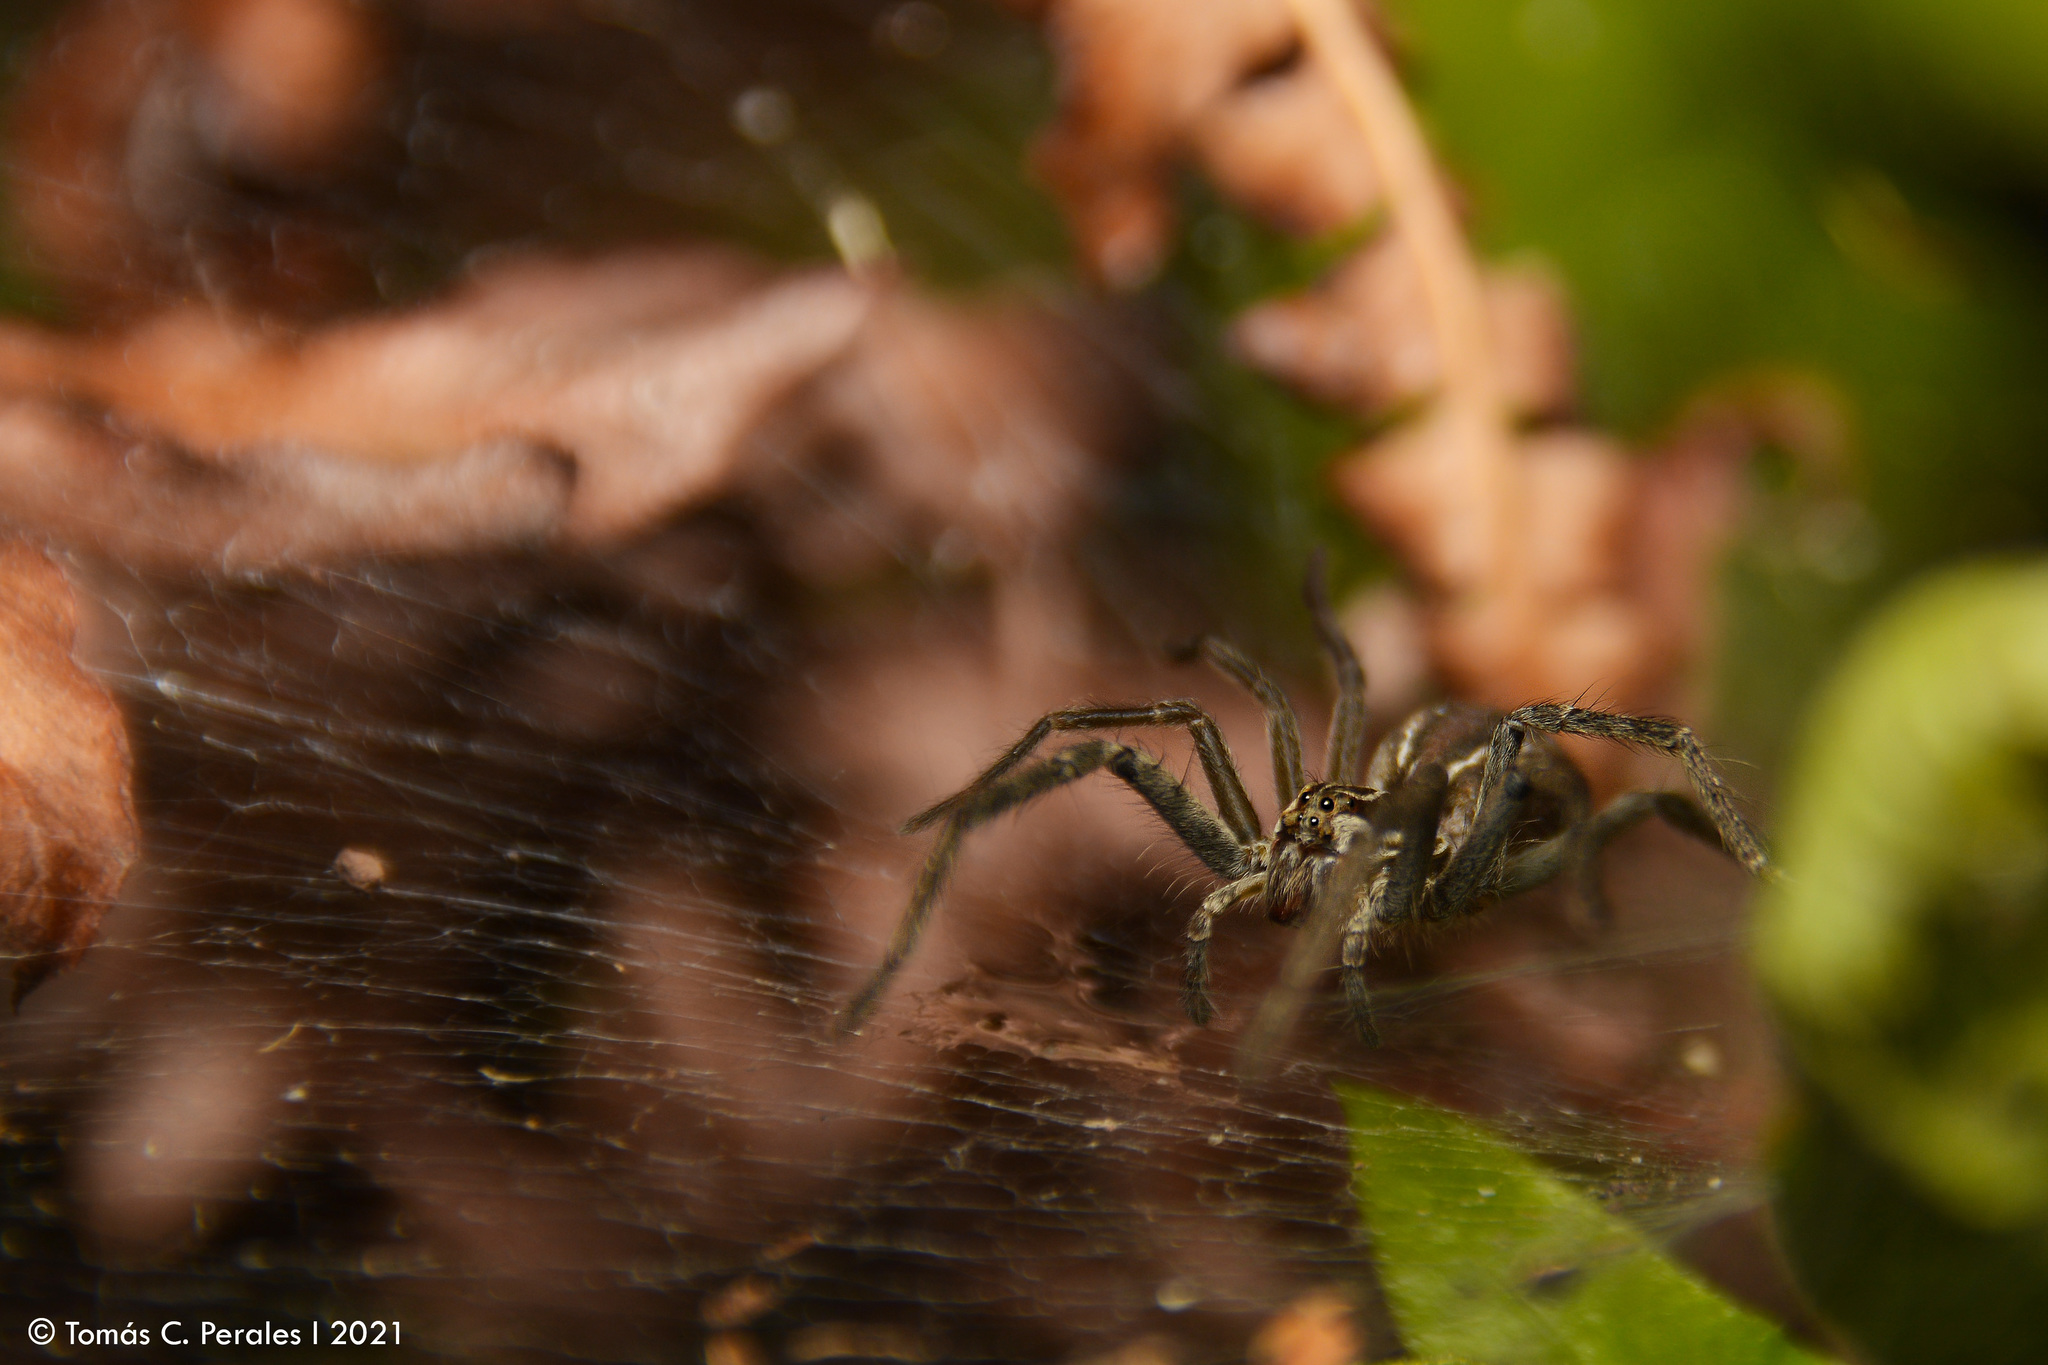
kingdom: Animalia
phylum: Arthropoda
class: Arachnida
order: Araneae
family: Lycosidae
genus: Aglaoctenus
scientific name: Aglaoctenus lagotis
